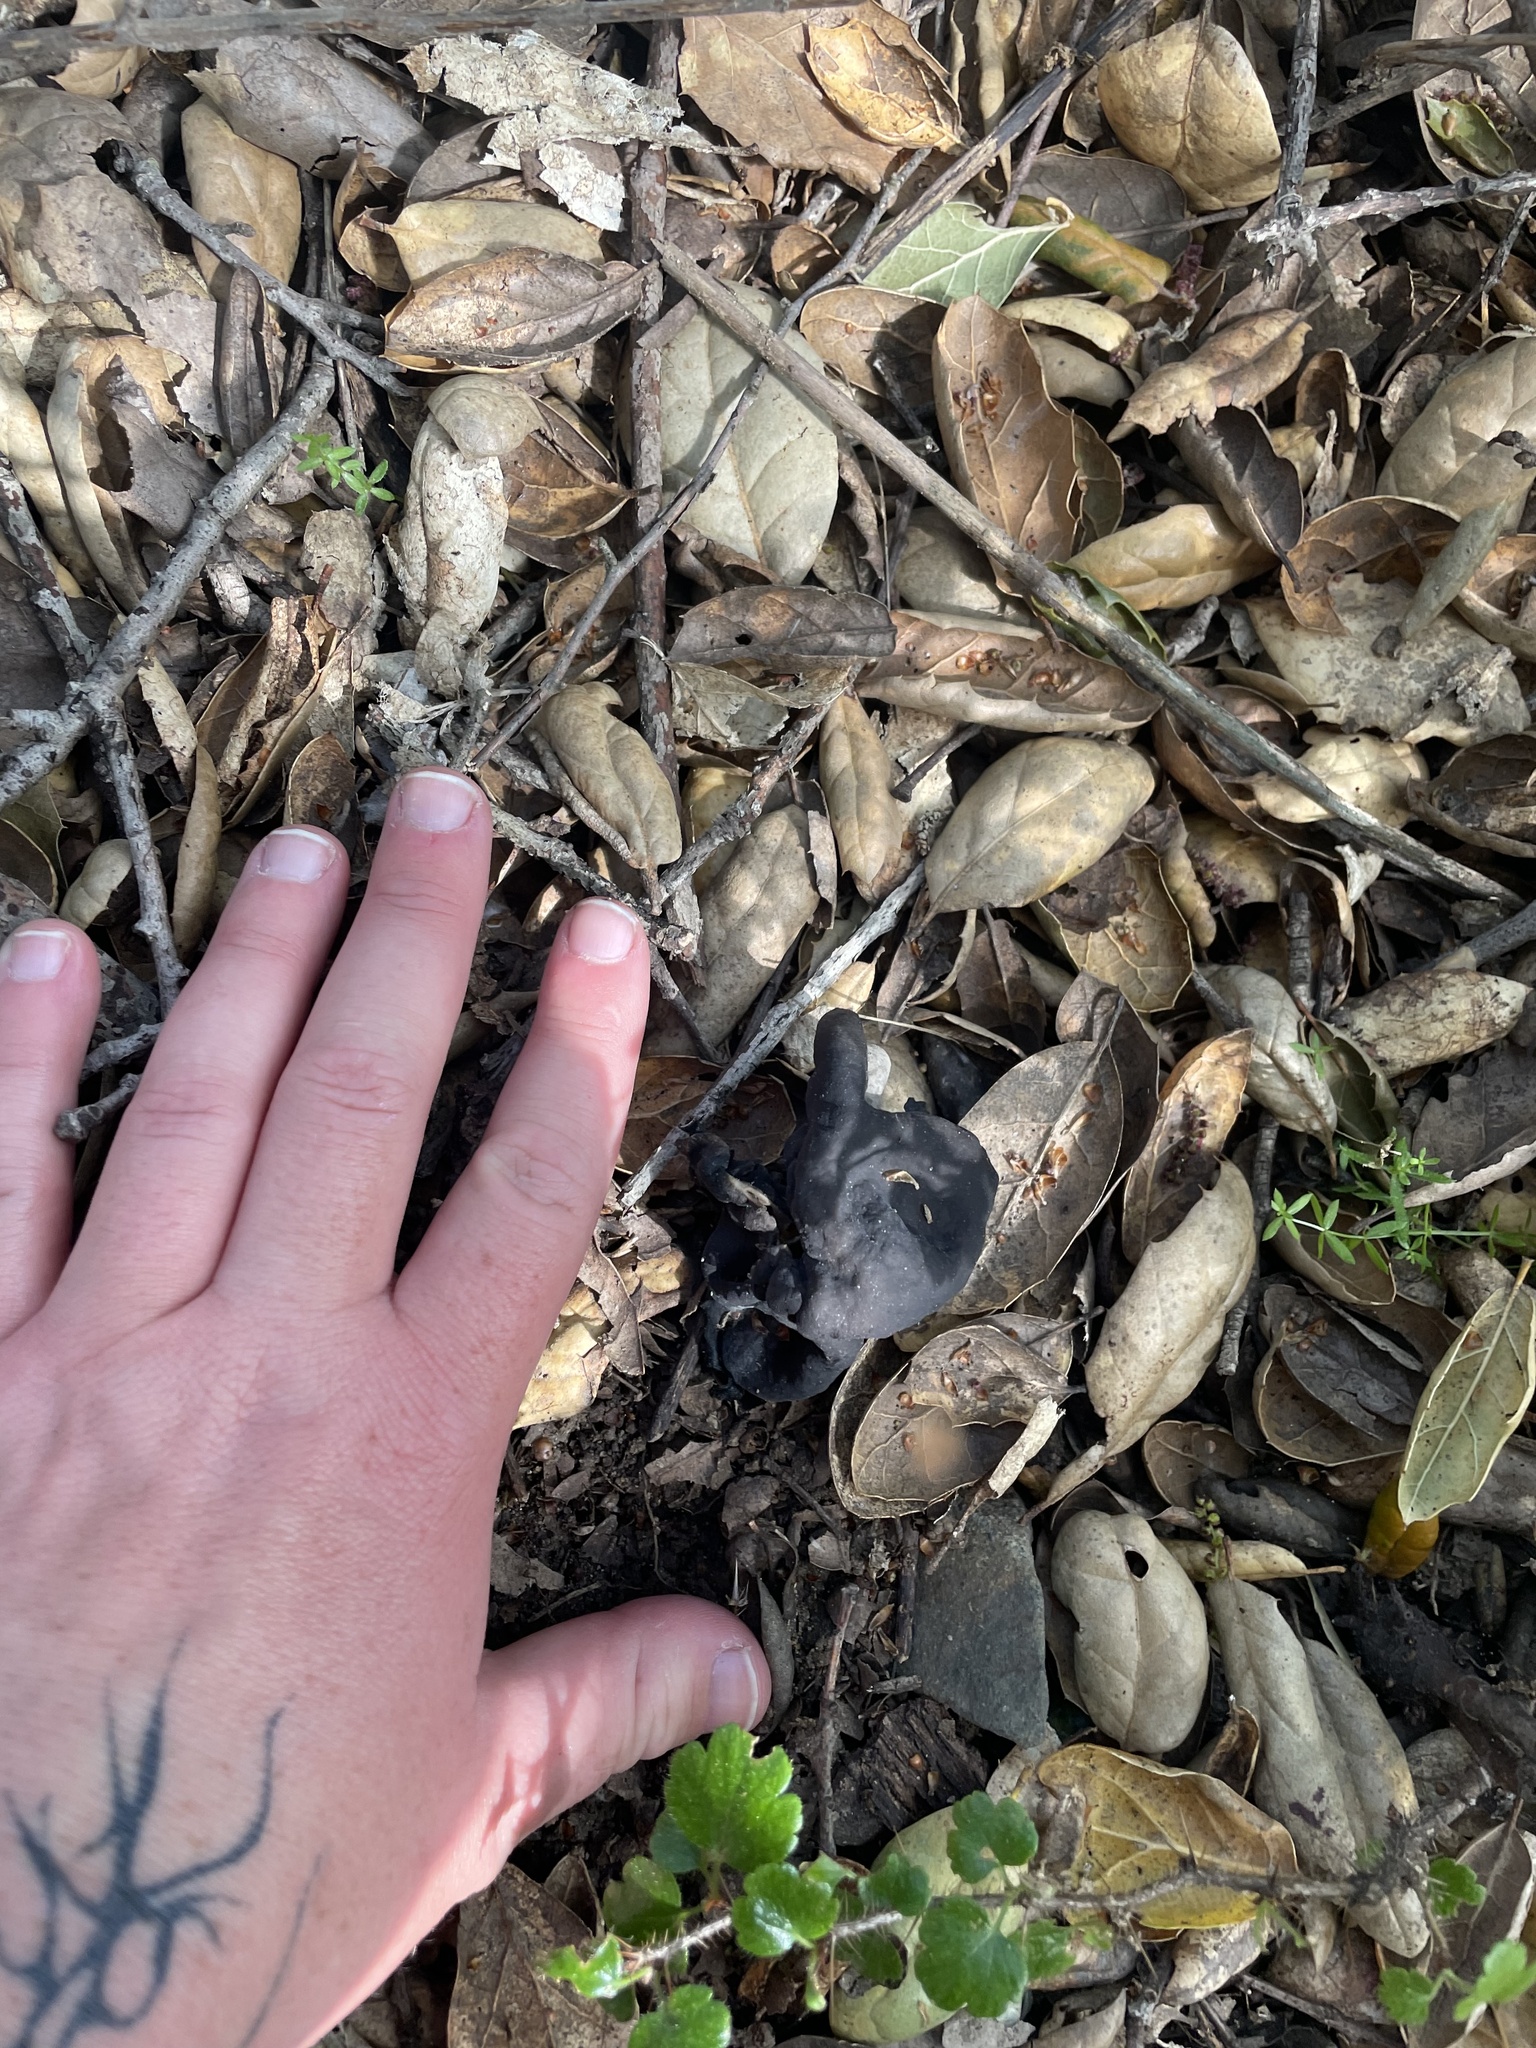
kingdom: Fungi
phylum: Ascomycota
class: Pezizomycetes
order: Pezizales
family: Helvellaceae
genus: Helvella
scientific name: Helvella dryophila
